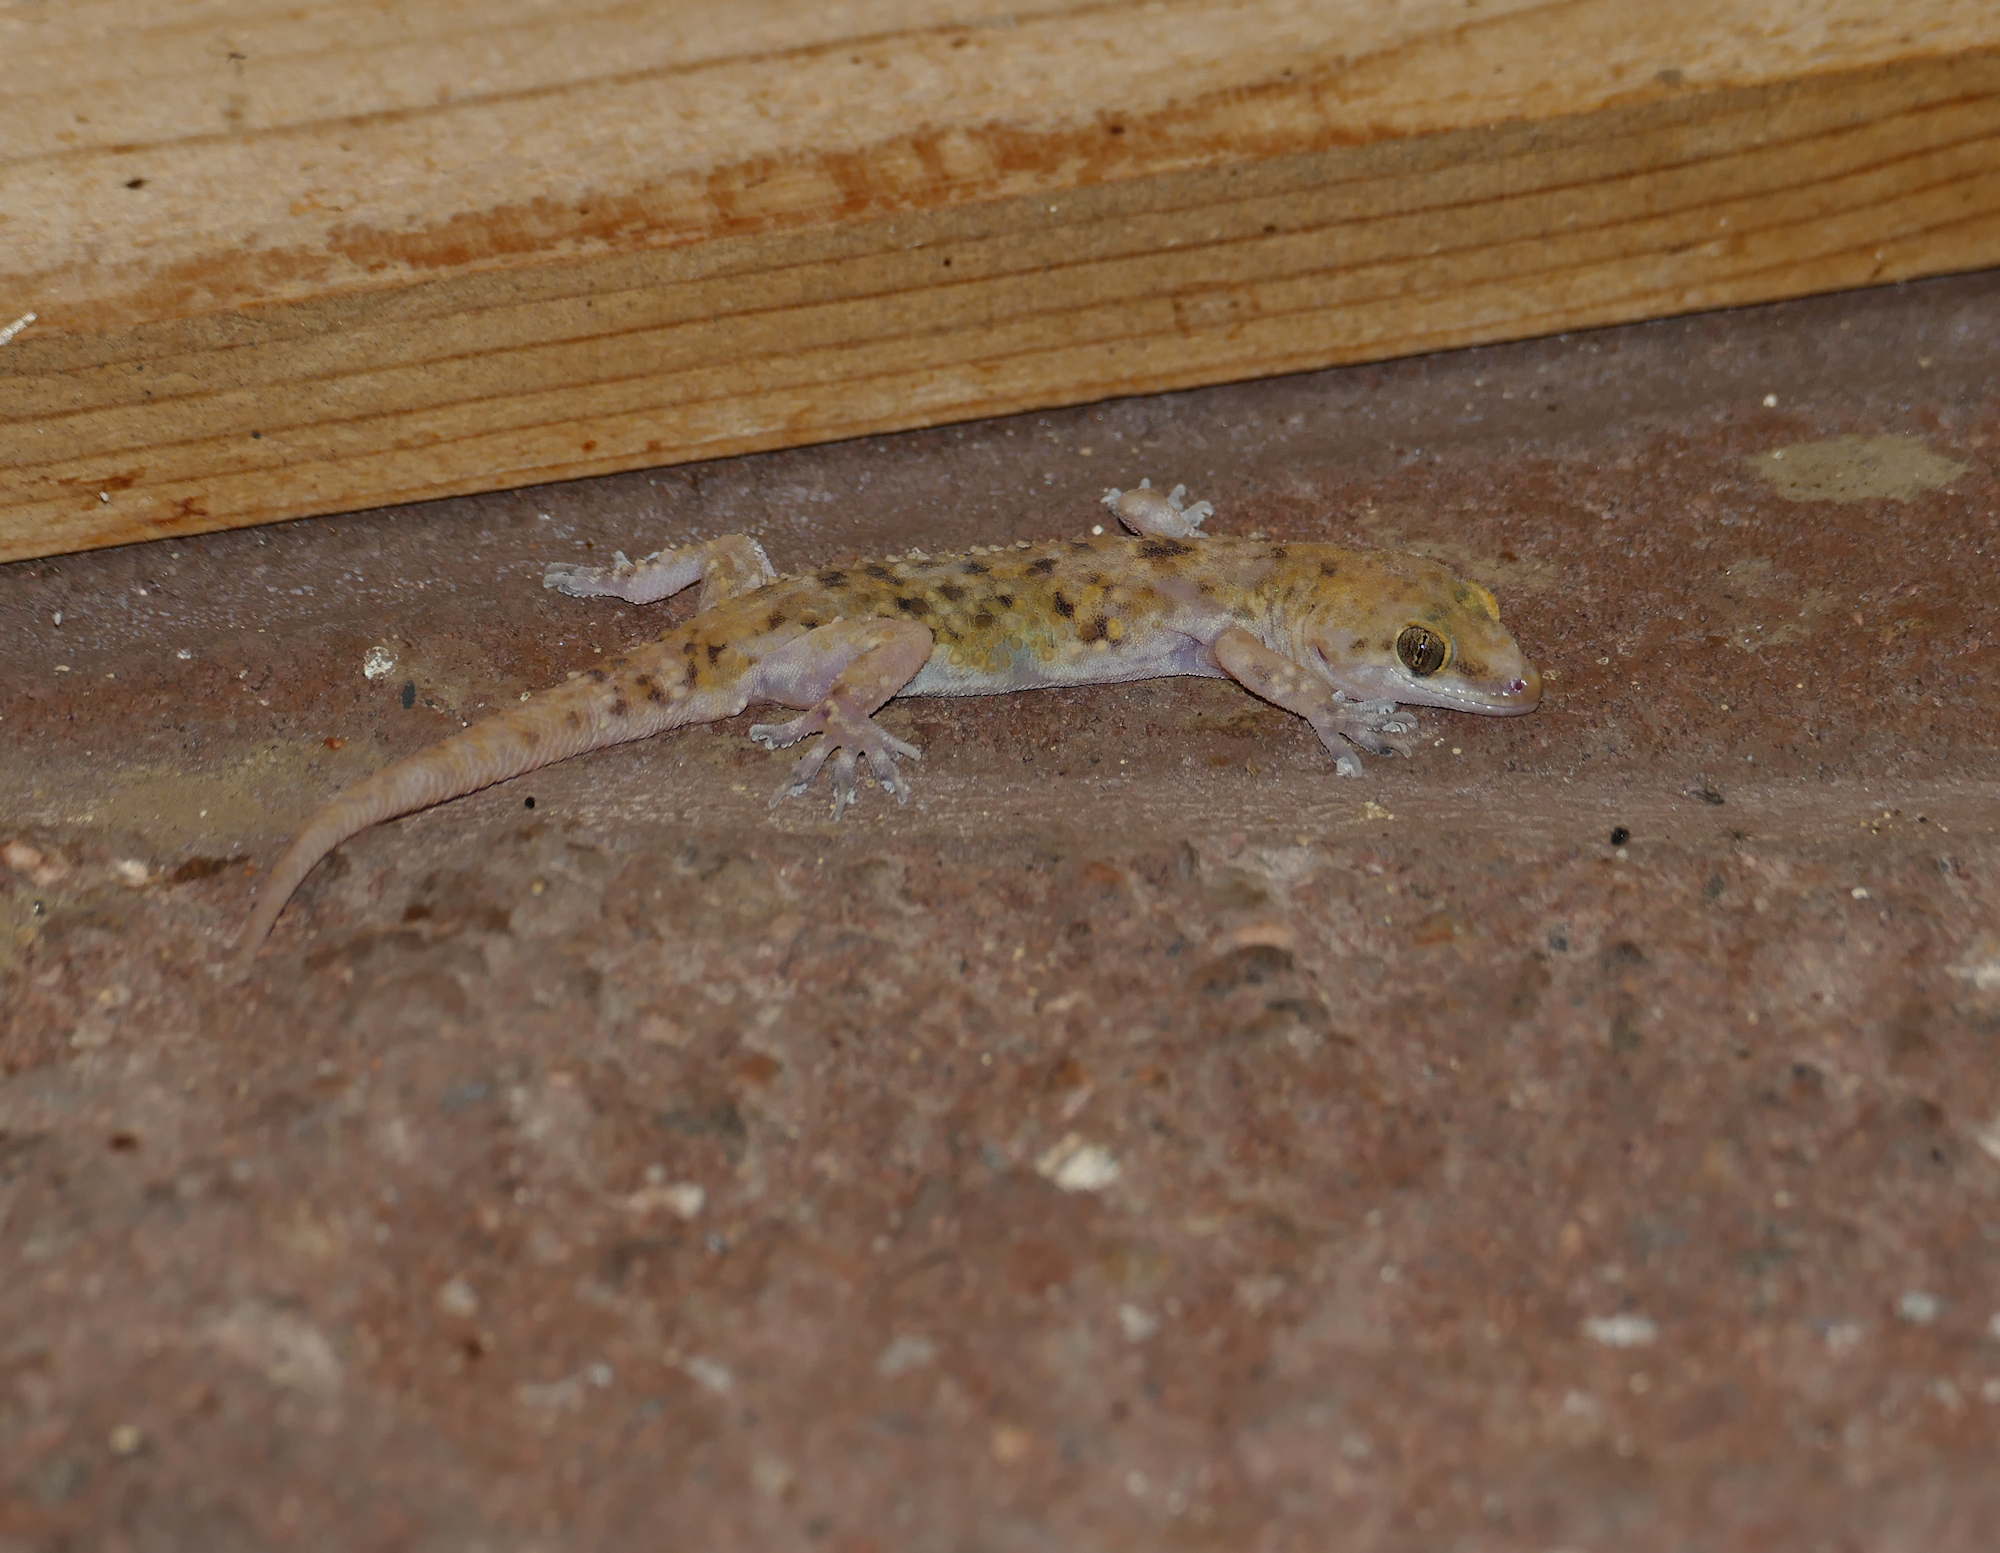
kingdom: Animalia
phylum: Chordata
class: Squamata
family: Gekkonidae
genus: Hemidactylus
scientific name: Hemidactylus turcicus
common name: Turkish gecko
